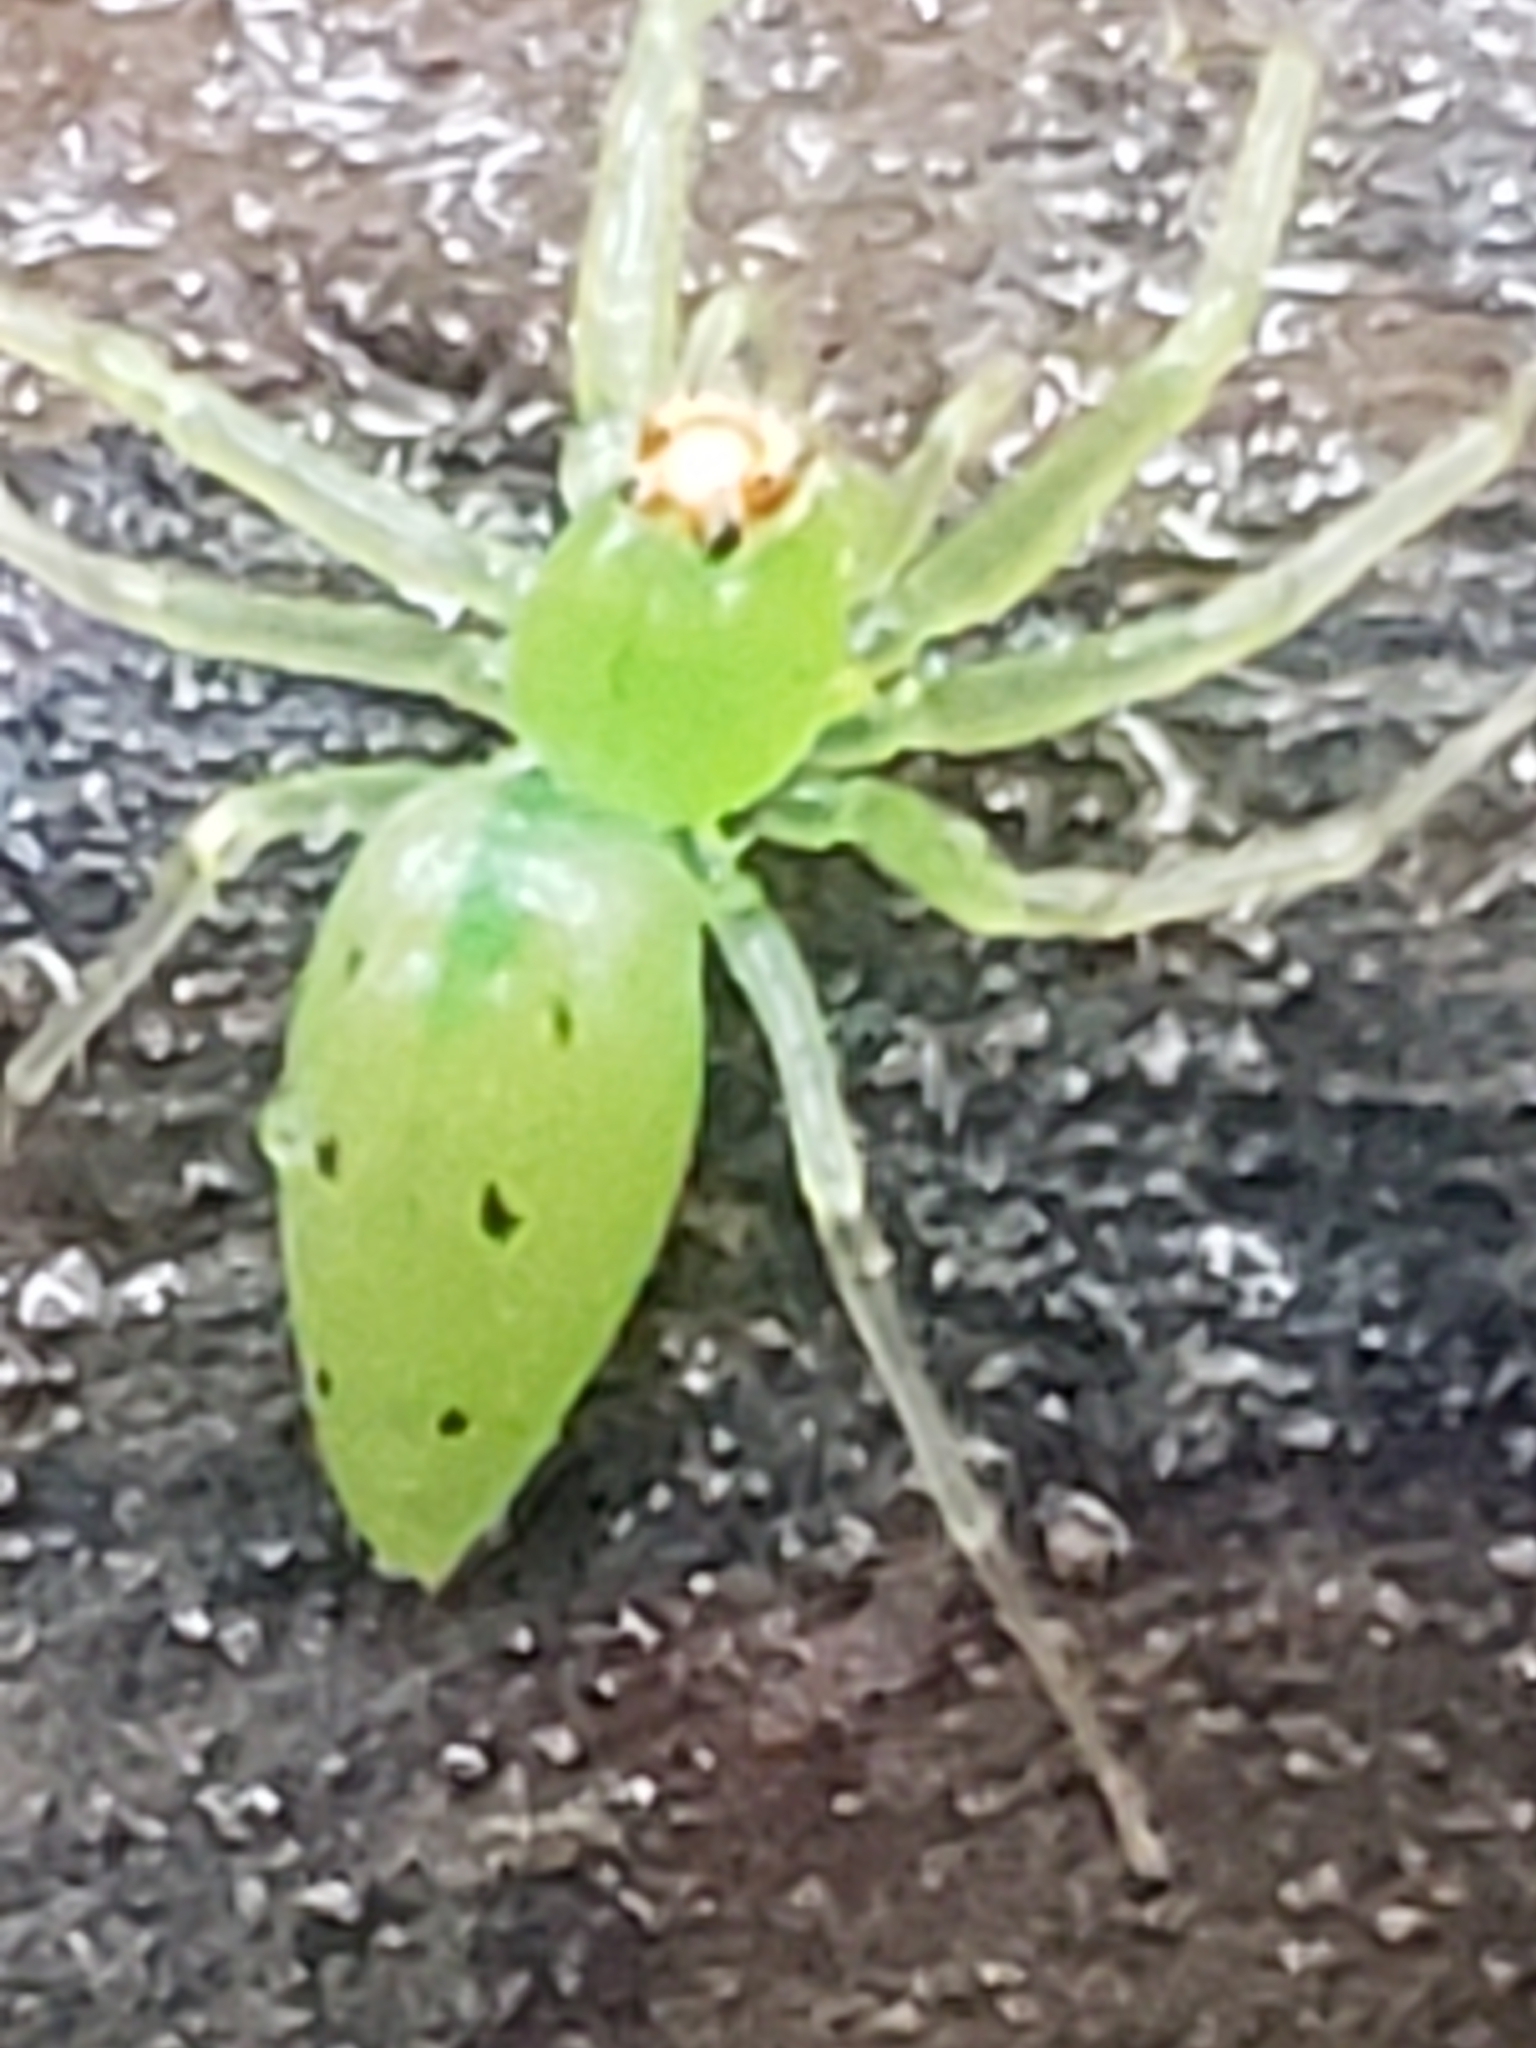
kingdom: Animalia
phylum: Arthropoda
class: Arachnida
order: Araneae
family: Salticidae
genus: Lyssomanes
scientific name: Lyssomanes viridis
